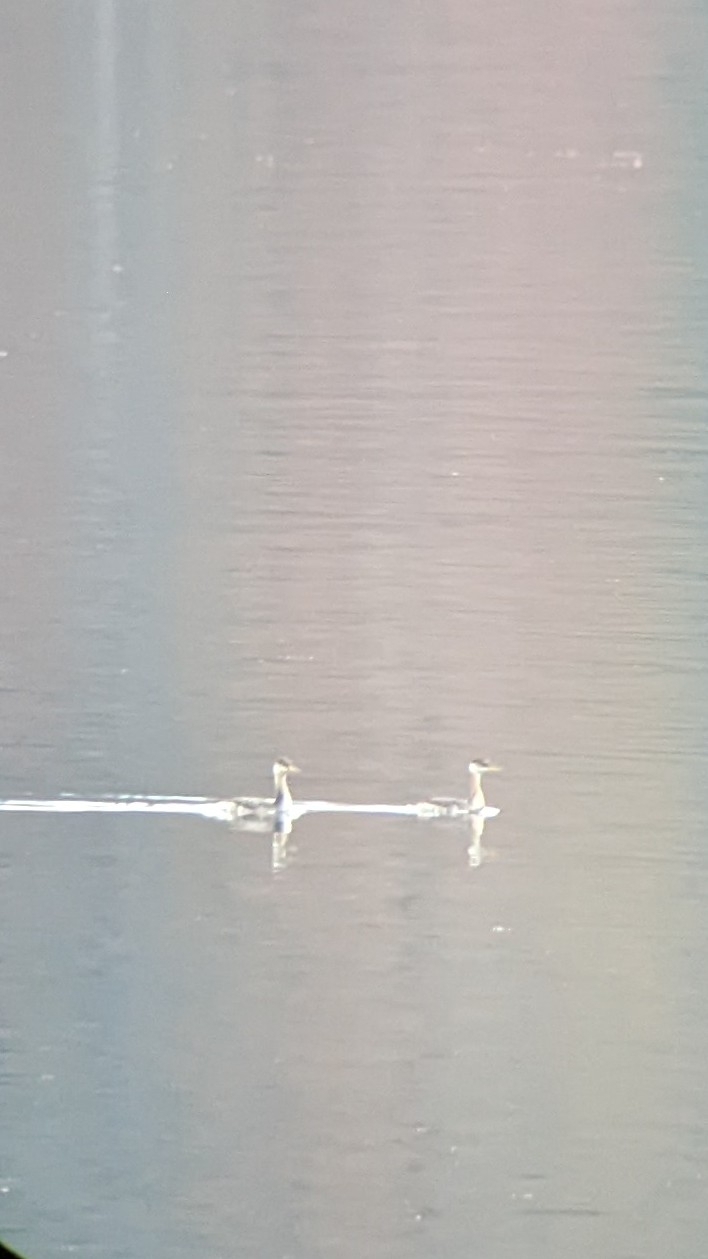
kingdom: Animalia
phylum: Chordata
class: Aves
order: Podicipediformes
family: Podicipedidae
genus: Podiceps
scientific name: Podiceps grisegena
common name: Red-necked grebe
